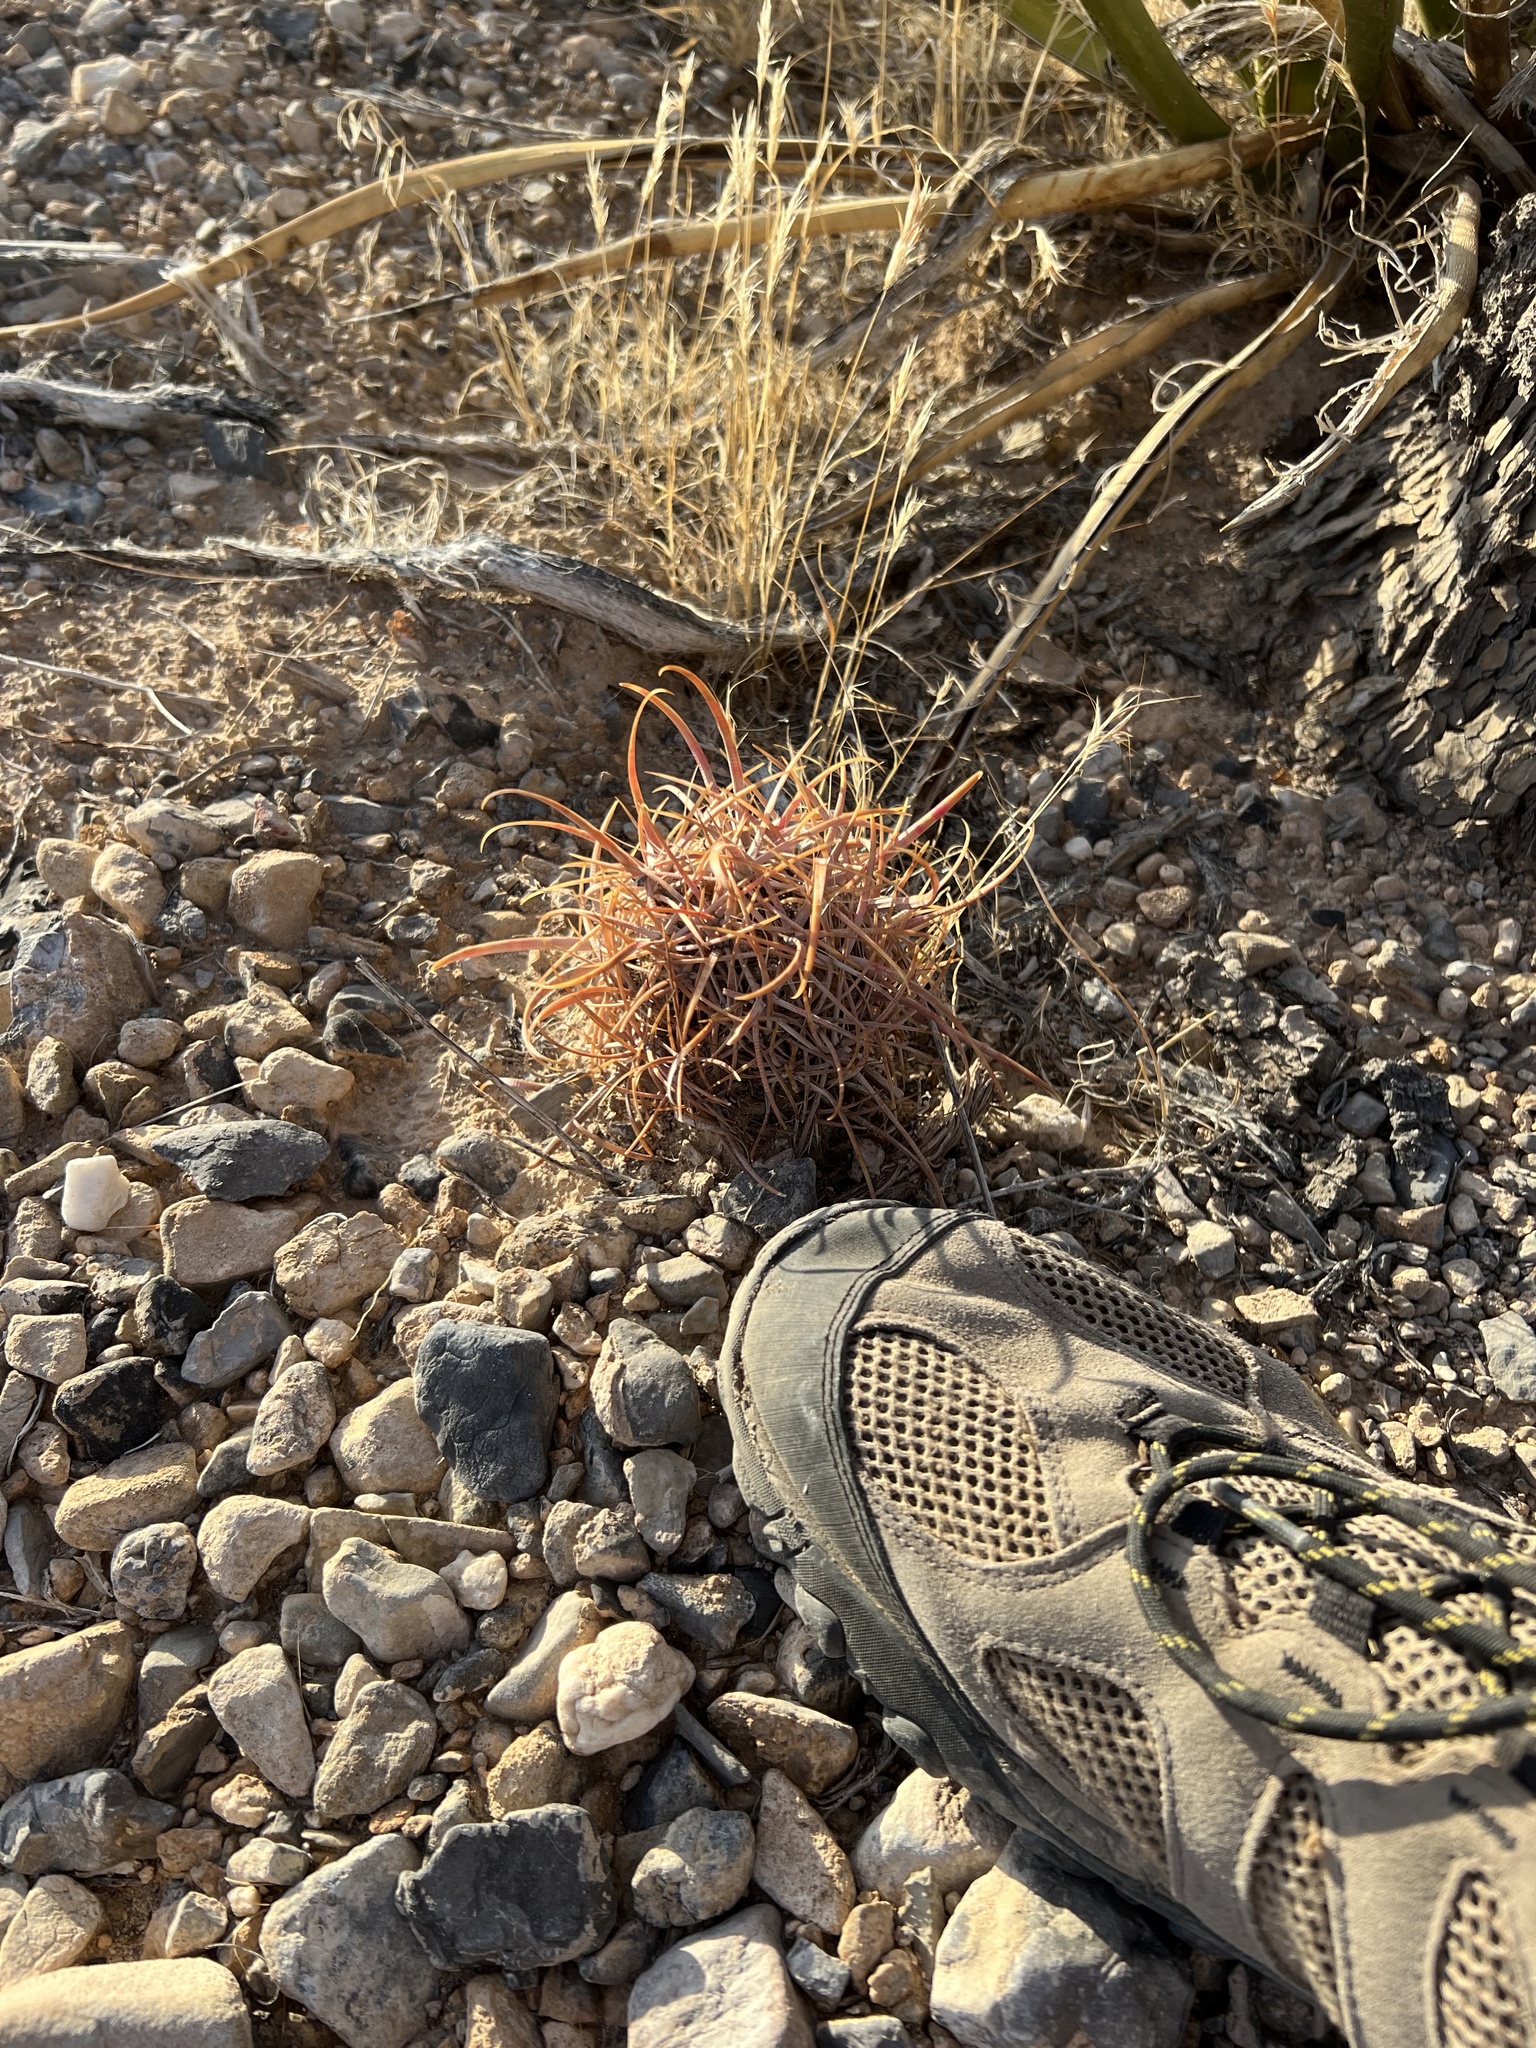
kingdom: Plantae
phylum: Tracheophyta
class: Magnoliopsida
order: Caryophyllales
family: Cactaceae
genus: Ferocactus
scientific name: Ferocactus cylindraceus
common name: California barrel cactus
